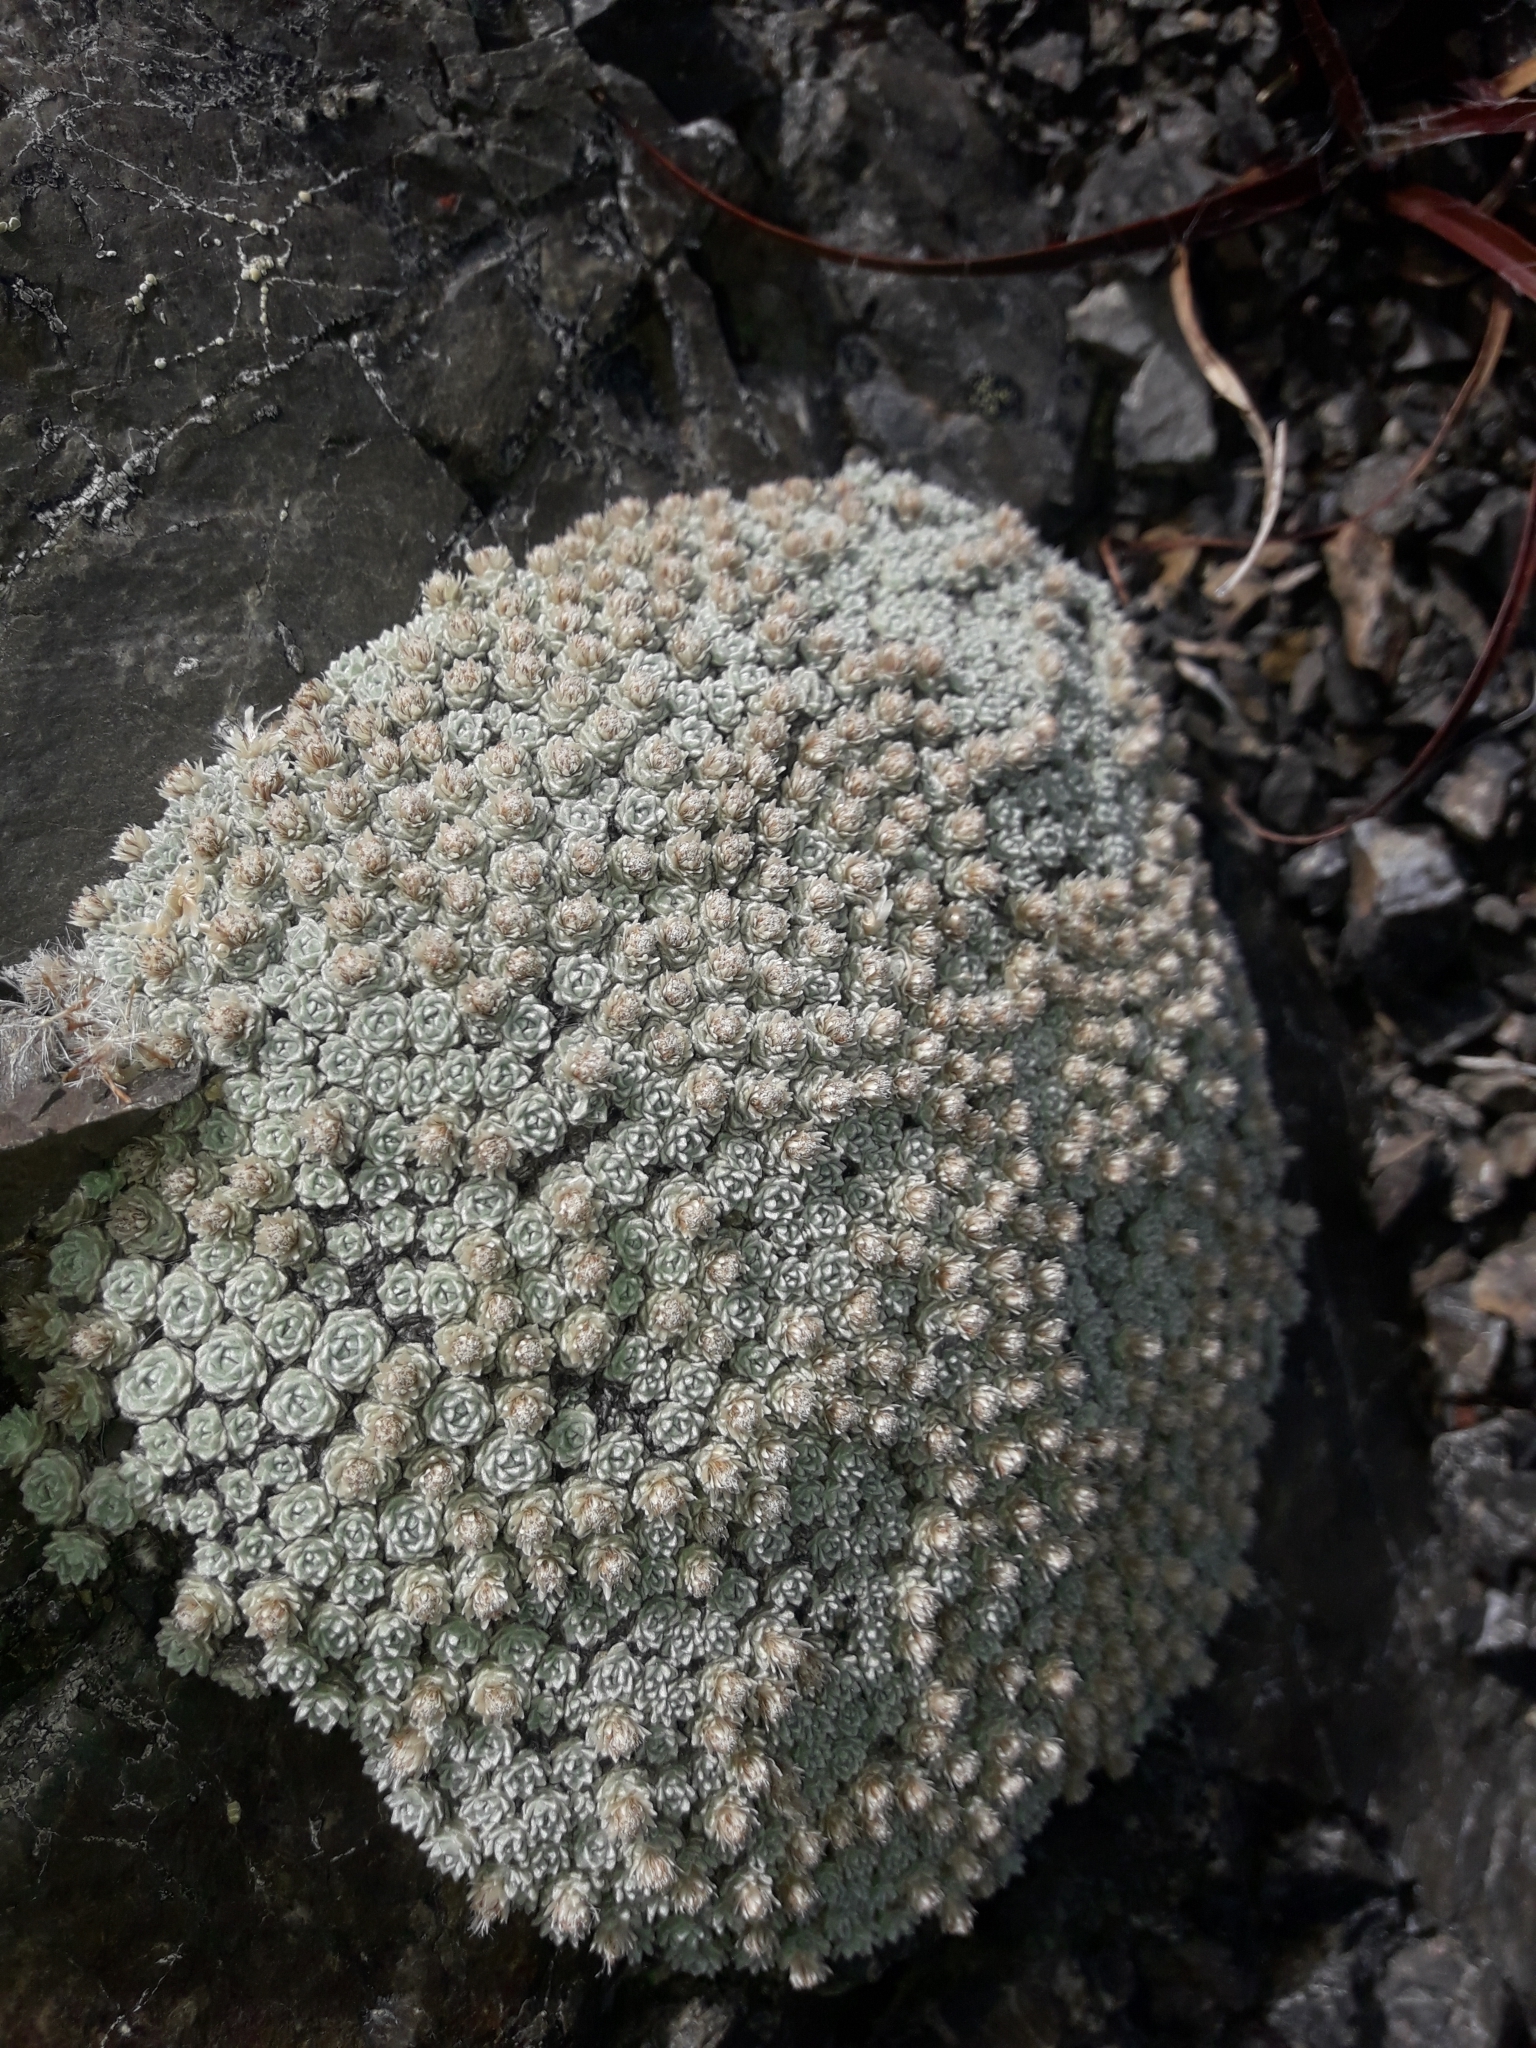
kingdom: Plantae
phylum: Tracheophyta
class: Magnoliopsida
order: Asterales
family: Asteraceae
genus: Raoulia
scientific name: Raoulia bryoides
